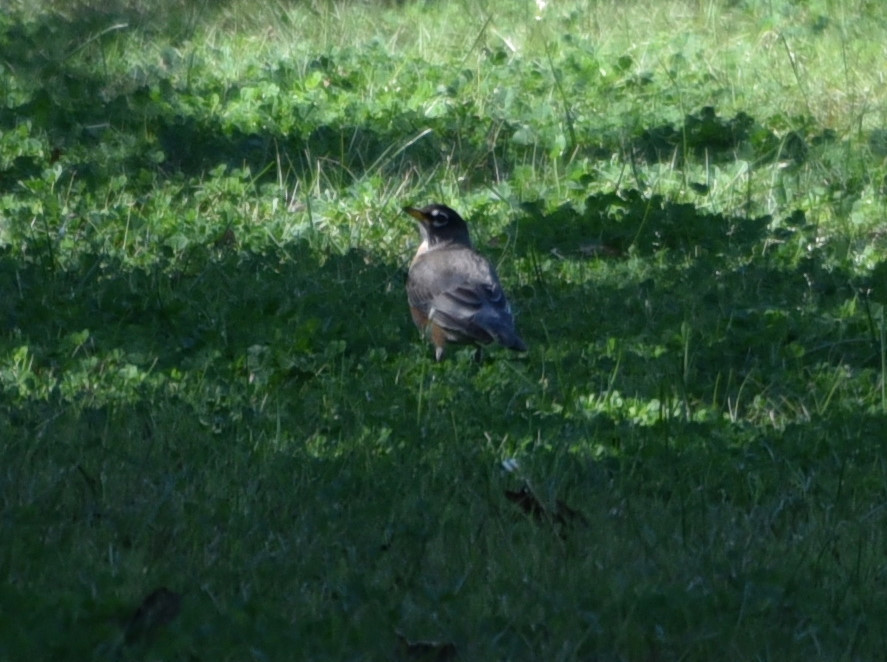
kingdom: Animalia
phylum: Chordata
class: Aves
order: Passeriformes
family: Turdidae
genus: Turdus
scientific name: Turdus migratorius
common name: American robin
